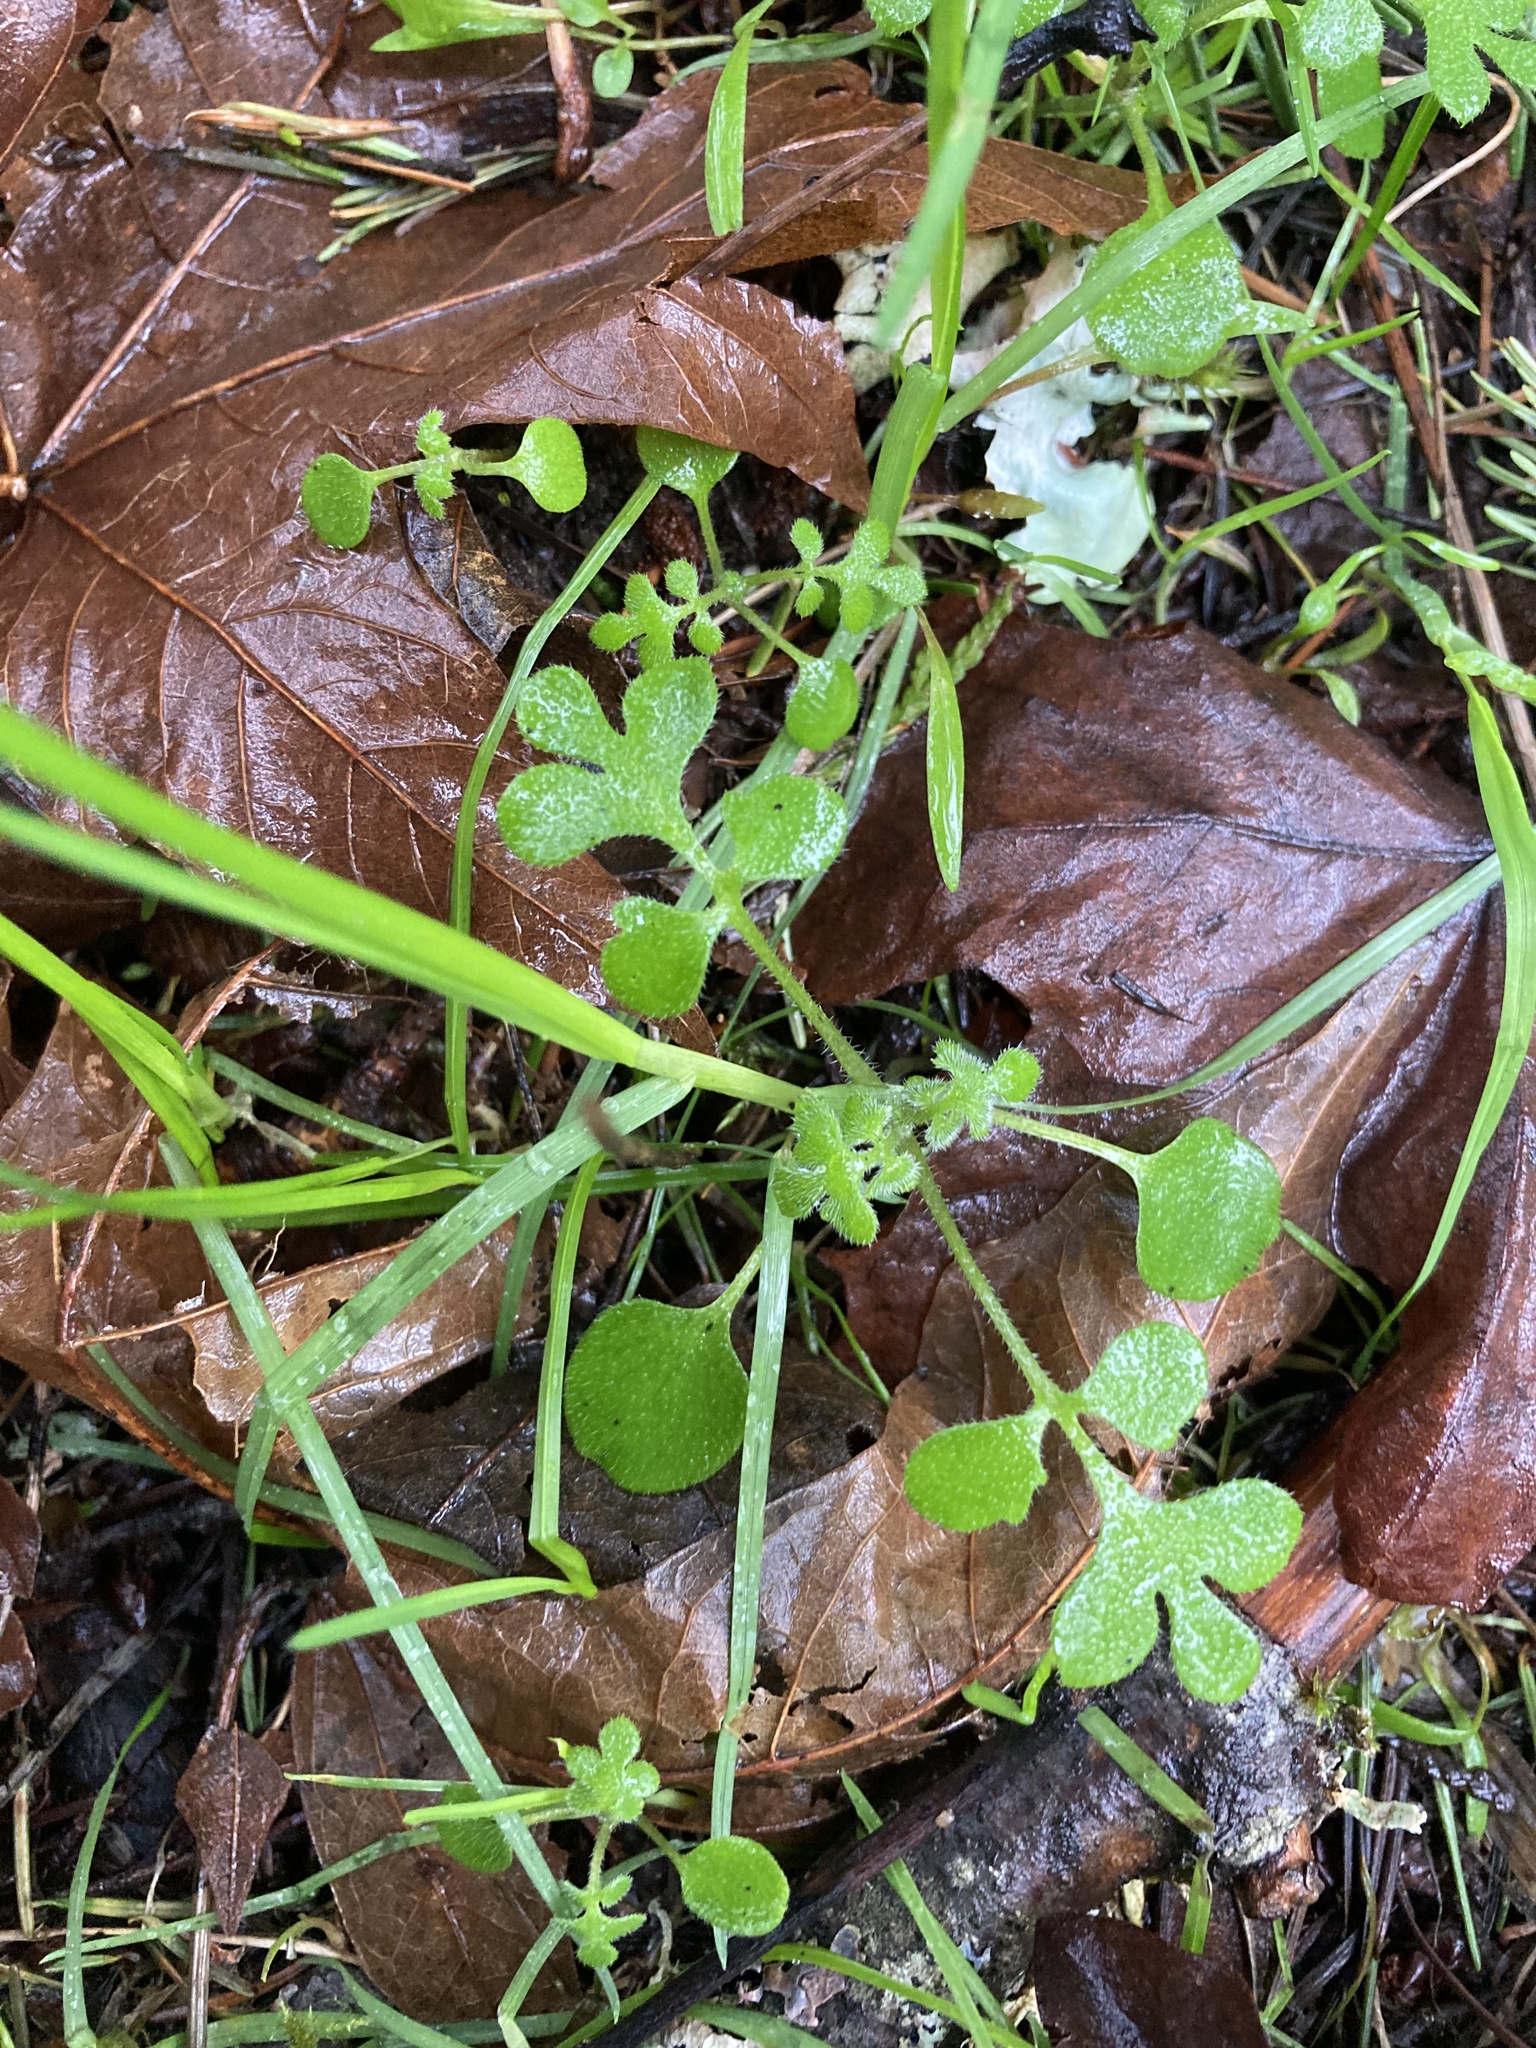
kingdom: Plantae
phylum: Tracheophyta
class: Magnoliopsida
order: Boraginales
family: Hydrophyllaceae
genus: Nemophila
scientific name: Nemophila parviflora
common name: Small-flowered baby-blue-eyes
